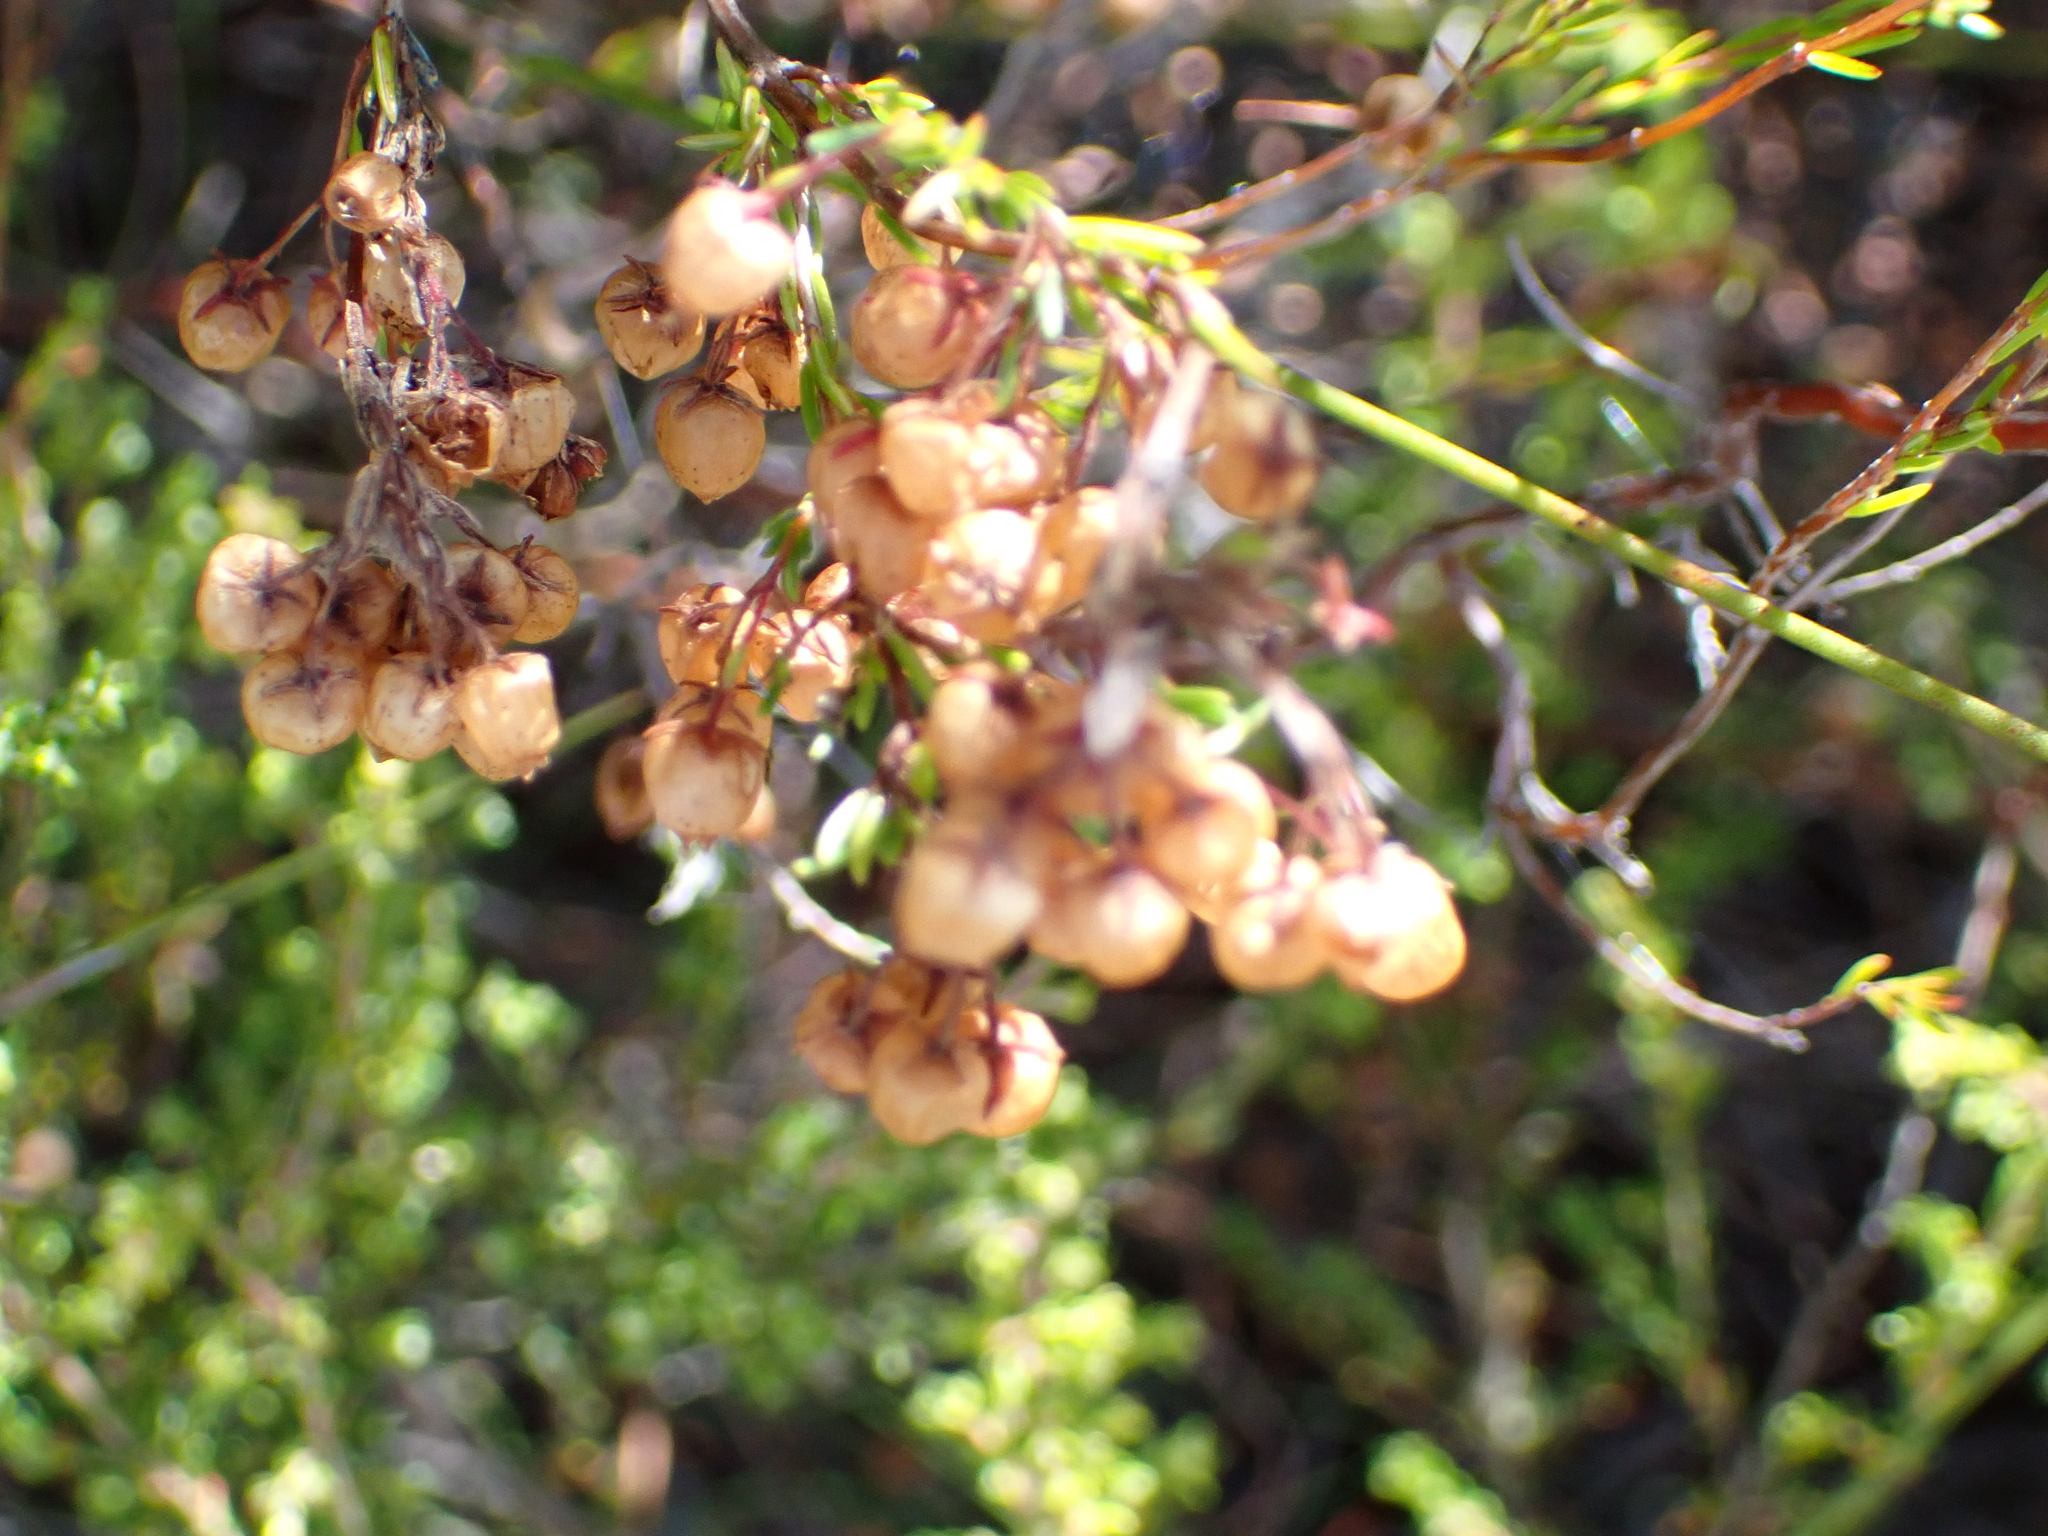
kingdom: Plantae
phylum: Tracheophyta
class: Magnoliopsida
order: Ericales
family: Ericaceae
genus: Erica
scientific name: Erica multumbellifera
